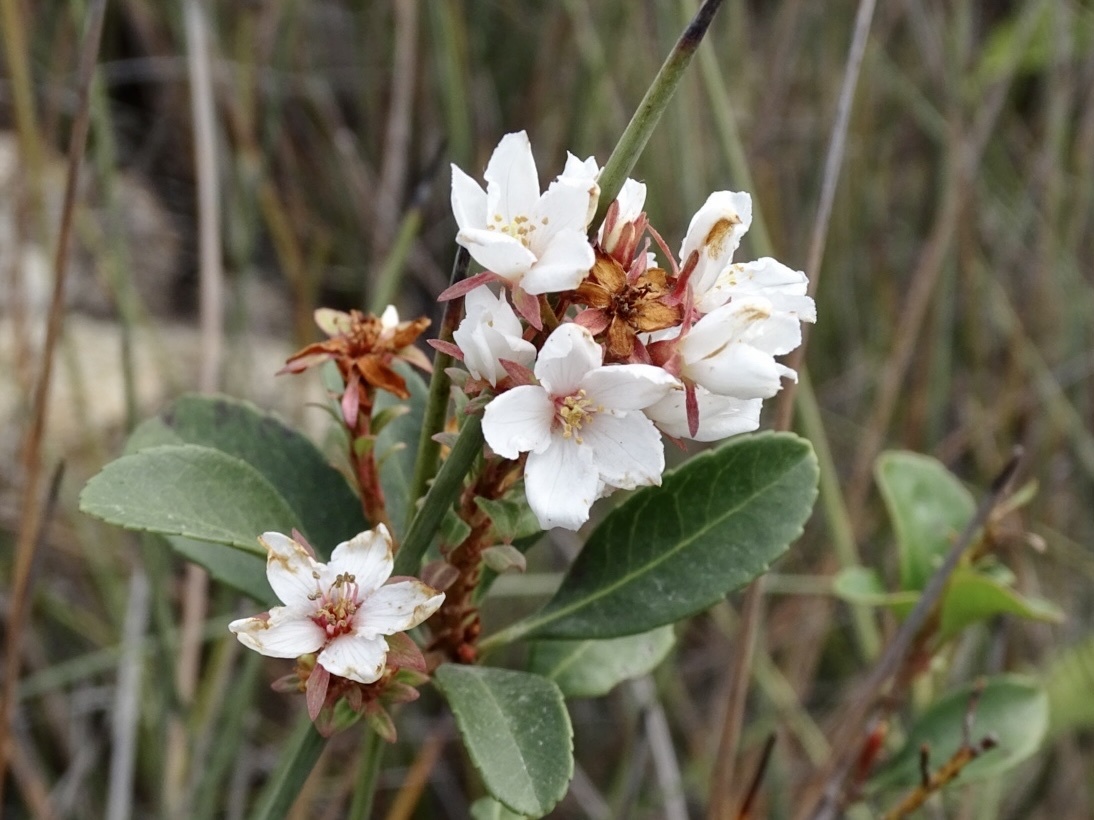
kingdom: Plantae
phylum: Tracheophyta
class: Magnoliopsida
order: Rosales
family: Rosaceae
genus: Rhaphiolepis
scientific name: Rhaphiolepis indica
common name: India-hawthorn
